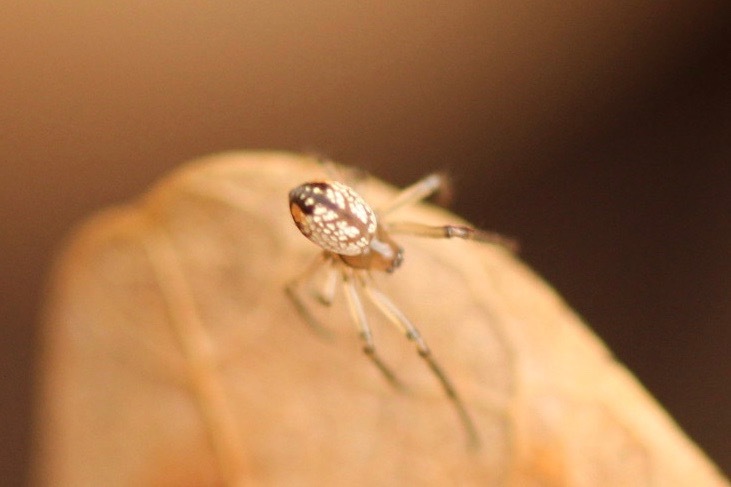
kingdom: Animalia
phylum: Arthropoda
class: Arachnida
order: Araneae
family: Tetragnathidae
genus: Leucauge
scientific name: Leucauge venusta
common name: Longjawed orb weavers
